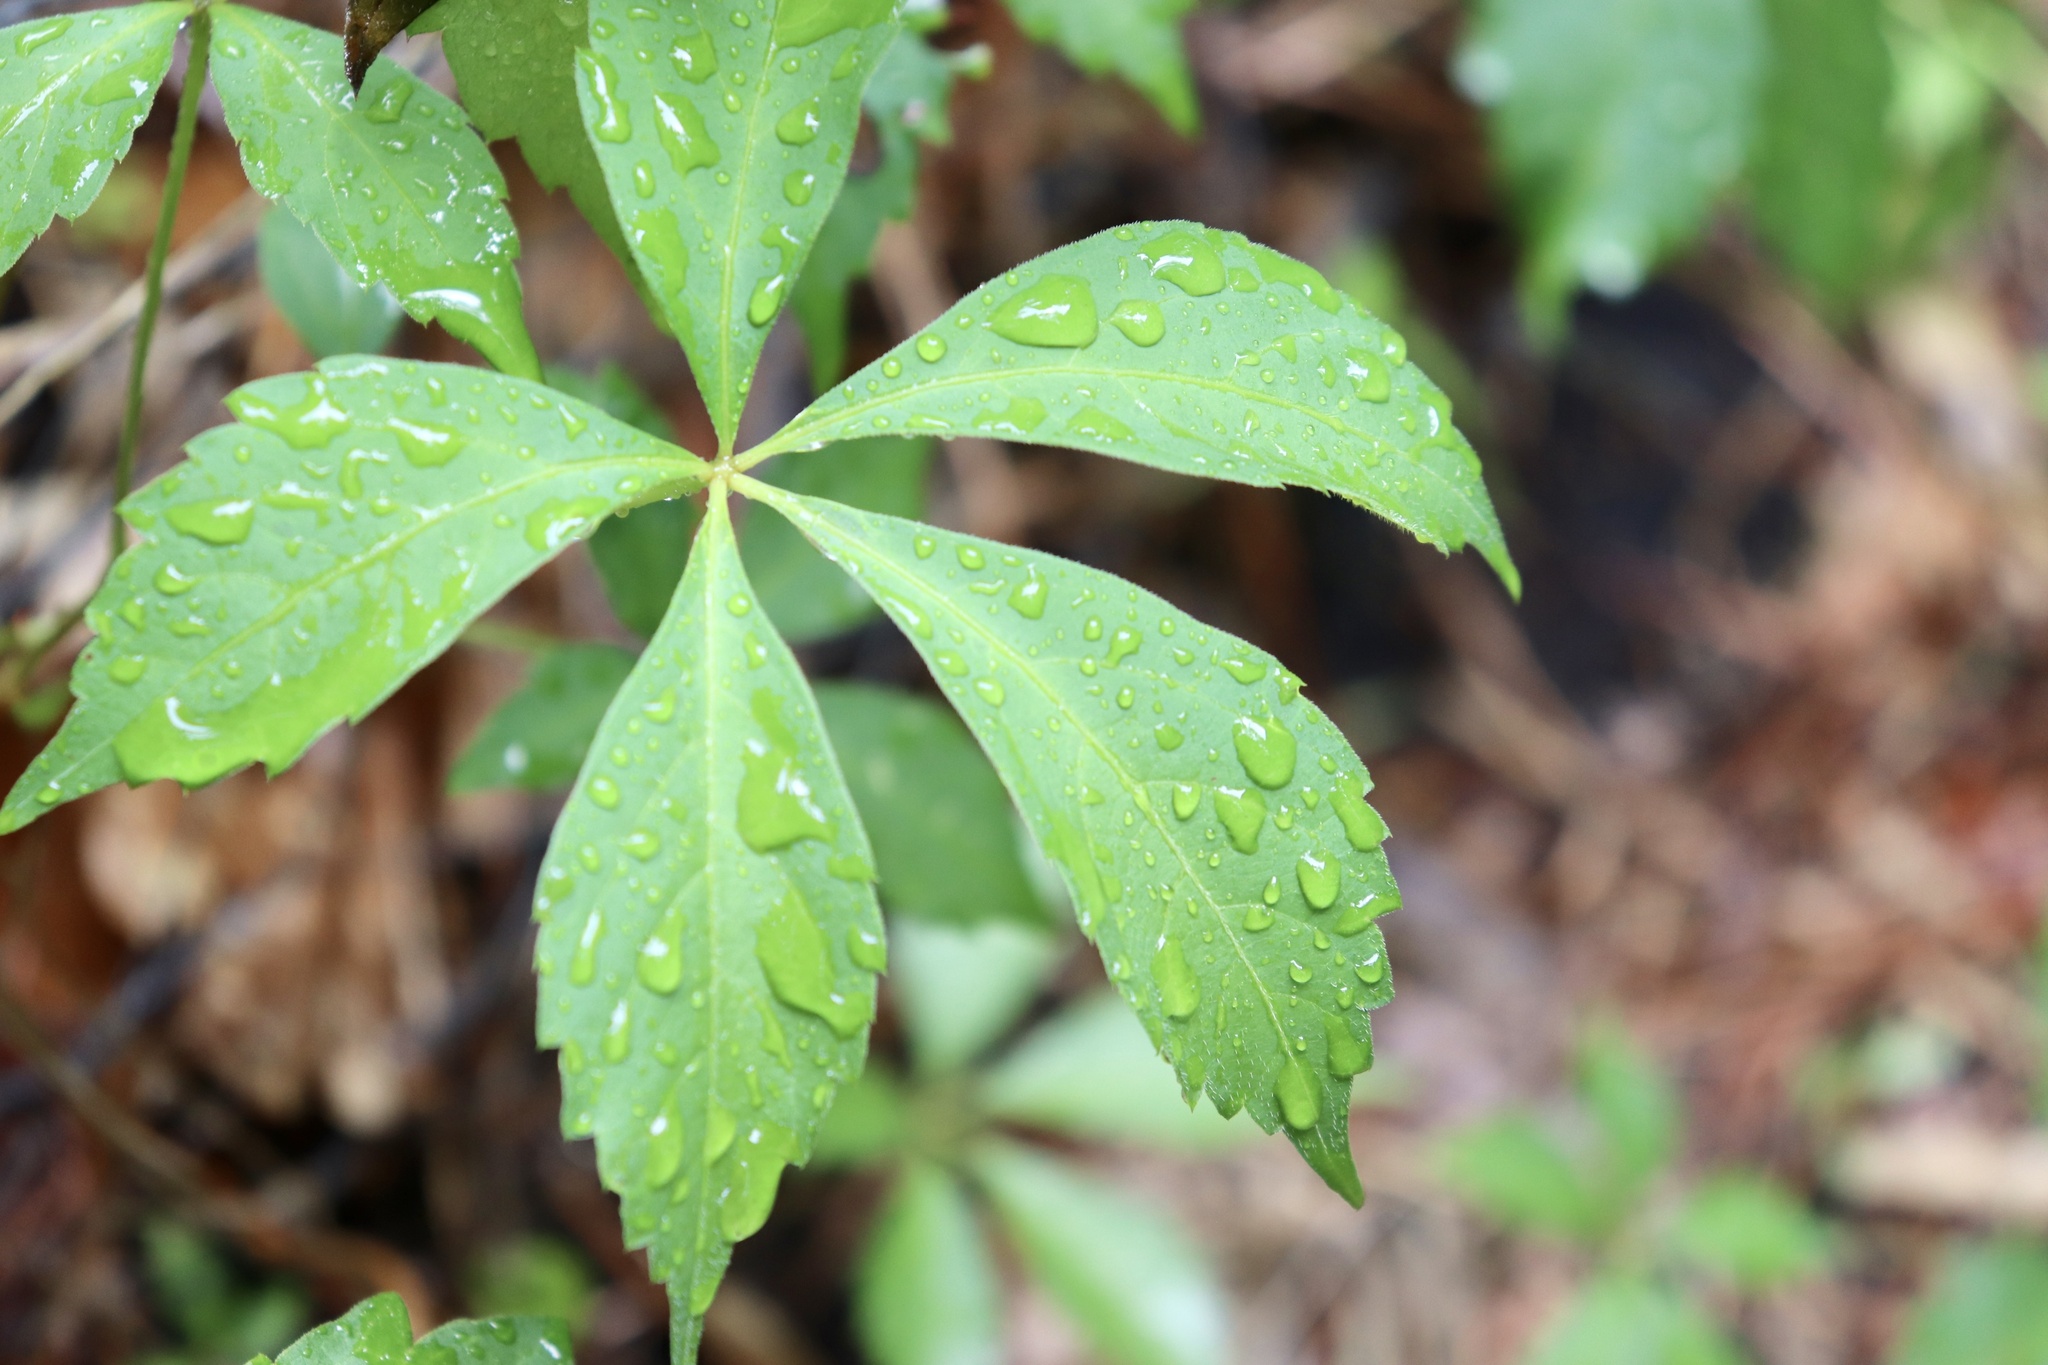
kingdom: Plantae
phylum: Tracheophyta
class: Magnoliopsida
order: Vitales
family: Vitaceae
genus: Parthenocissus
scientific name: Parthenocissus quinquefolia
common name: Virginia-creeper
